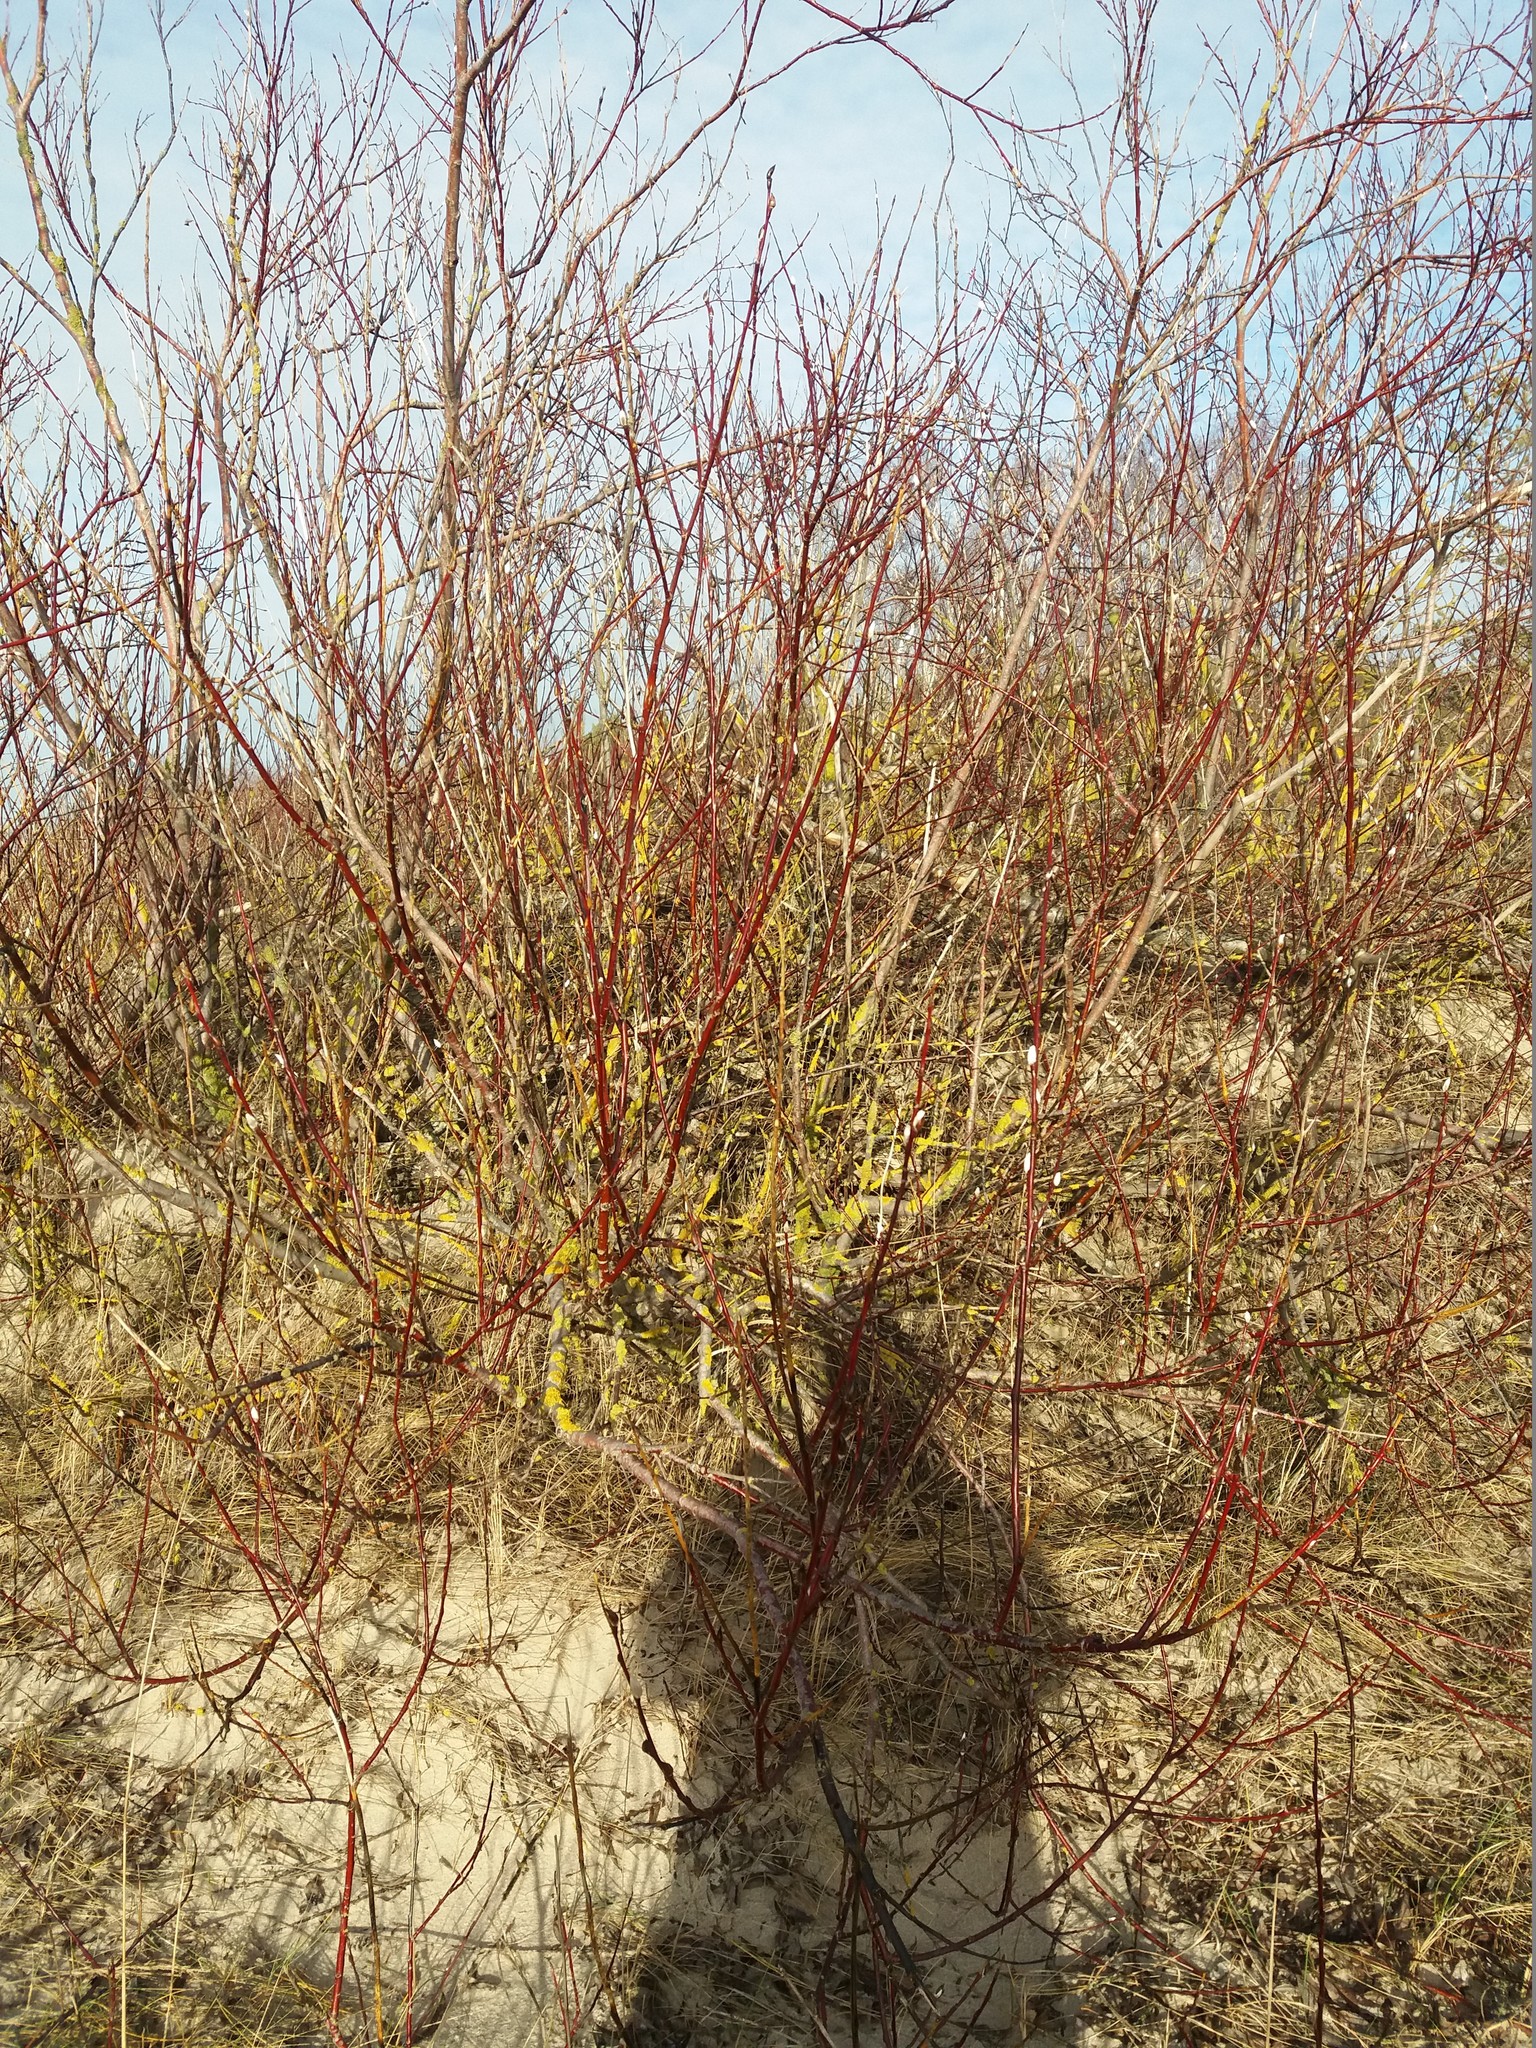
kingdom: Plantae
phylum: Tracheophyta
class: Magnoliopsida
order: Malpighiales
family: Salicaceae
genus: Salix
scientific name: Salix
